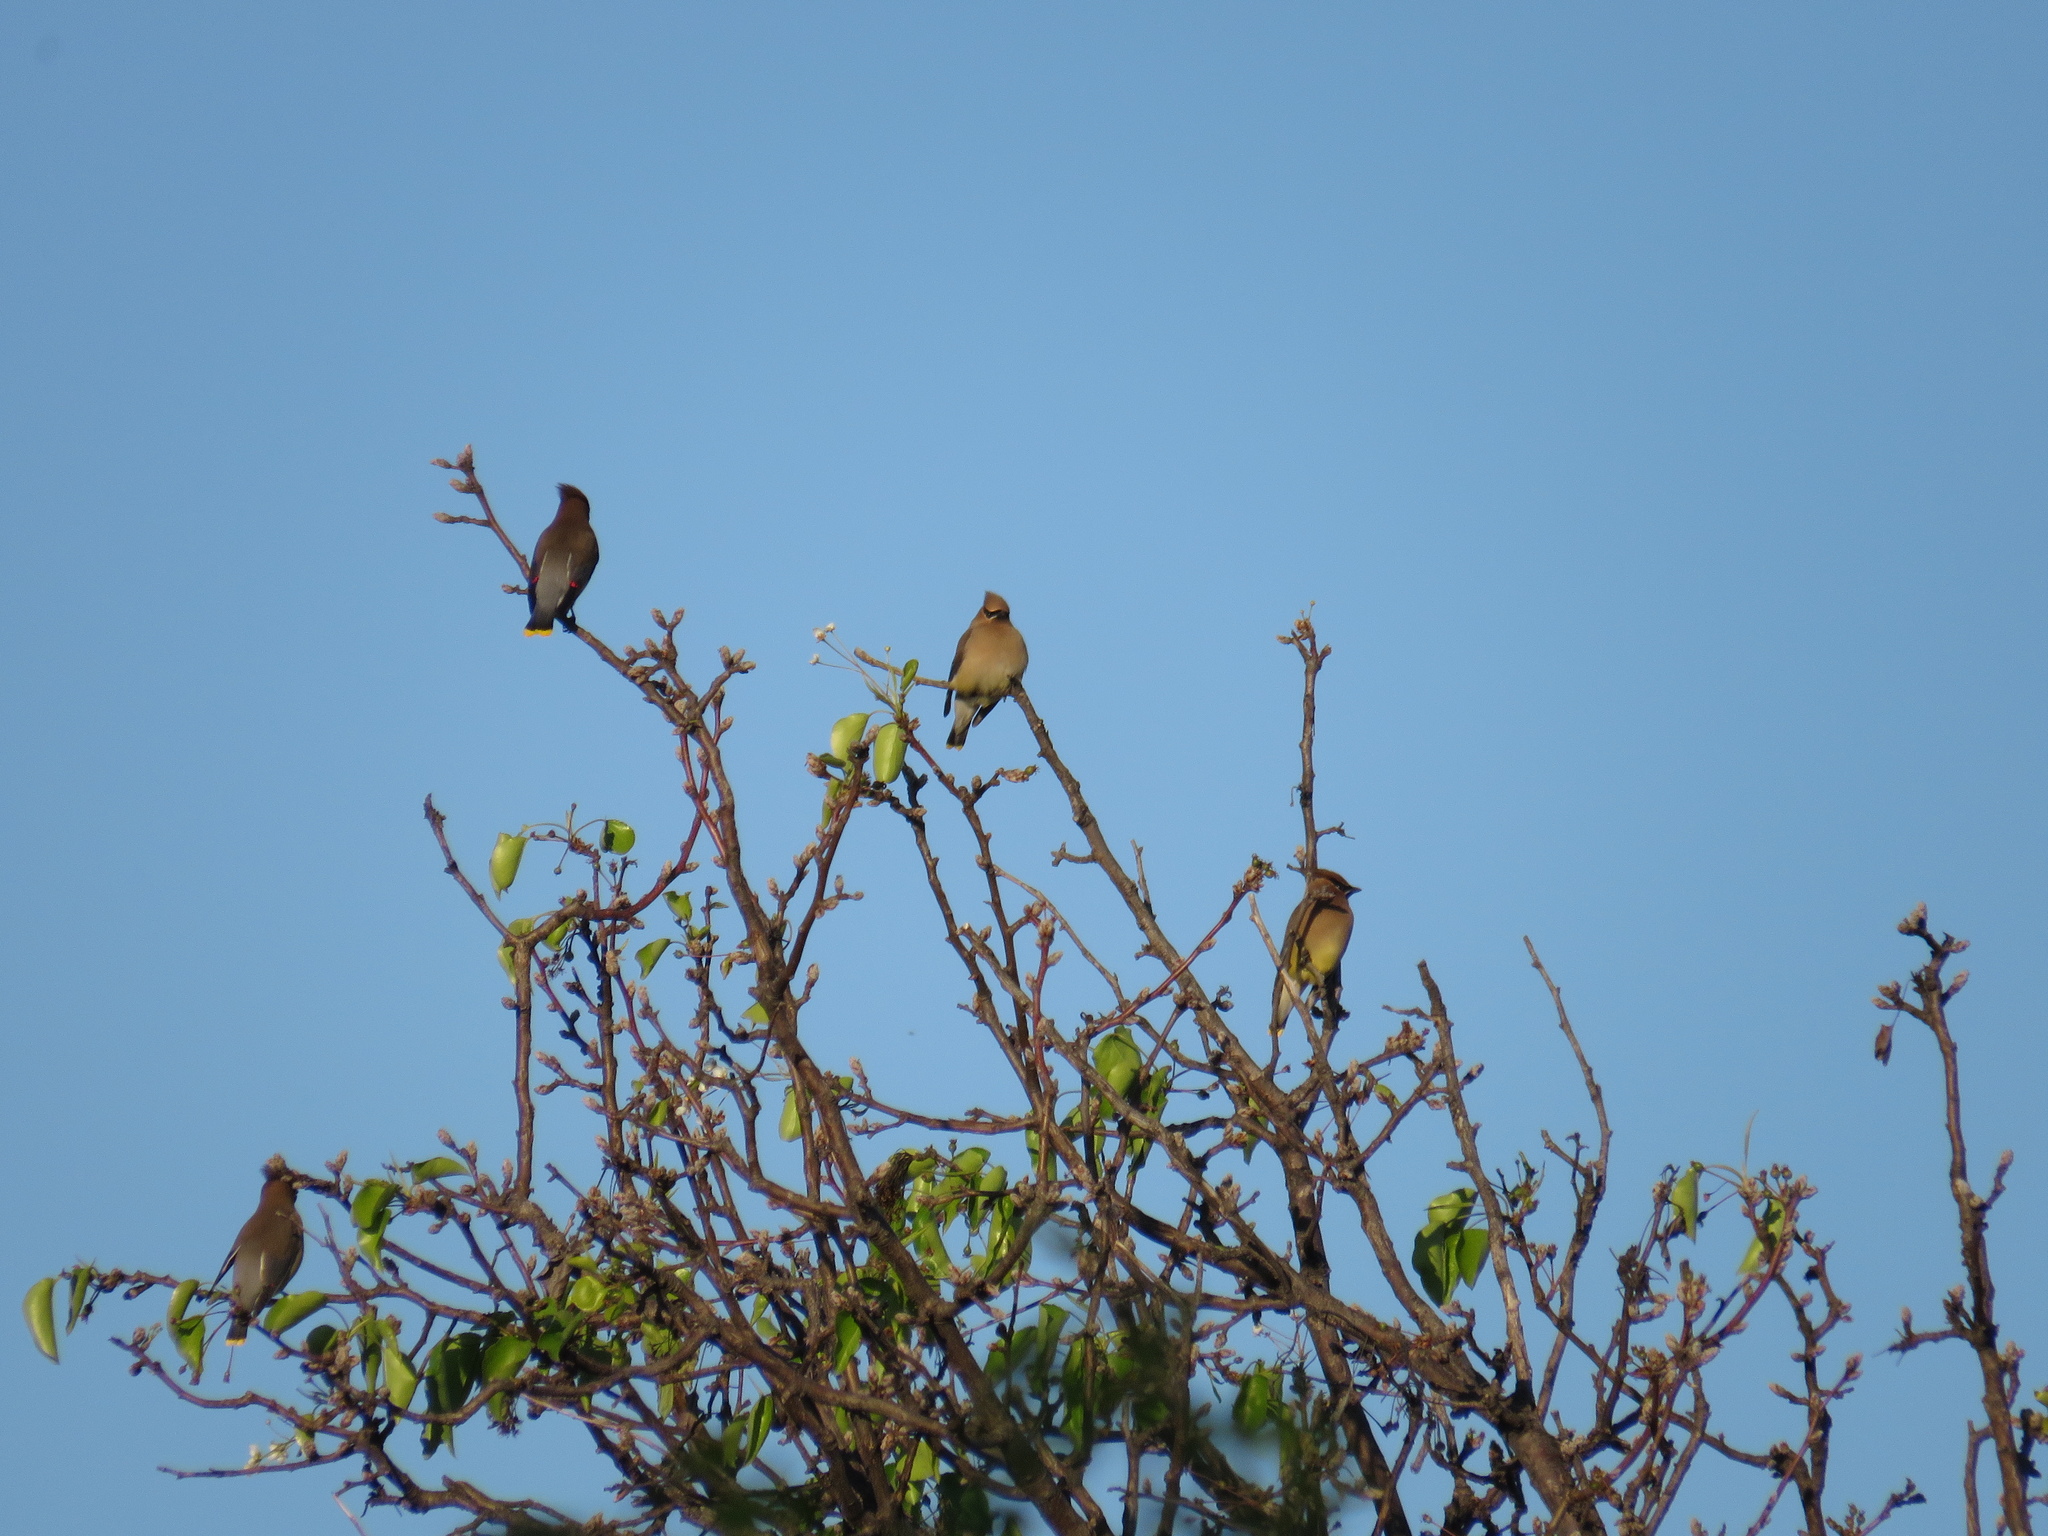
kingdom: Animalia
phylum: Chordata
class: Aves
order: Passeriformes
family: Bombycillidae
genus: Bombycilla
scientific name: Bombycilla cedrorum
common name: Cedar waxwing
